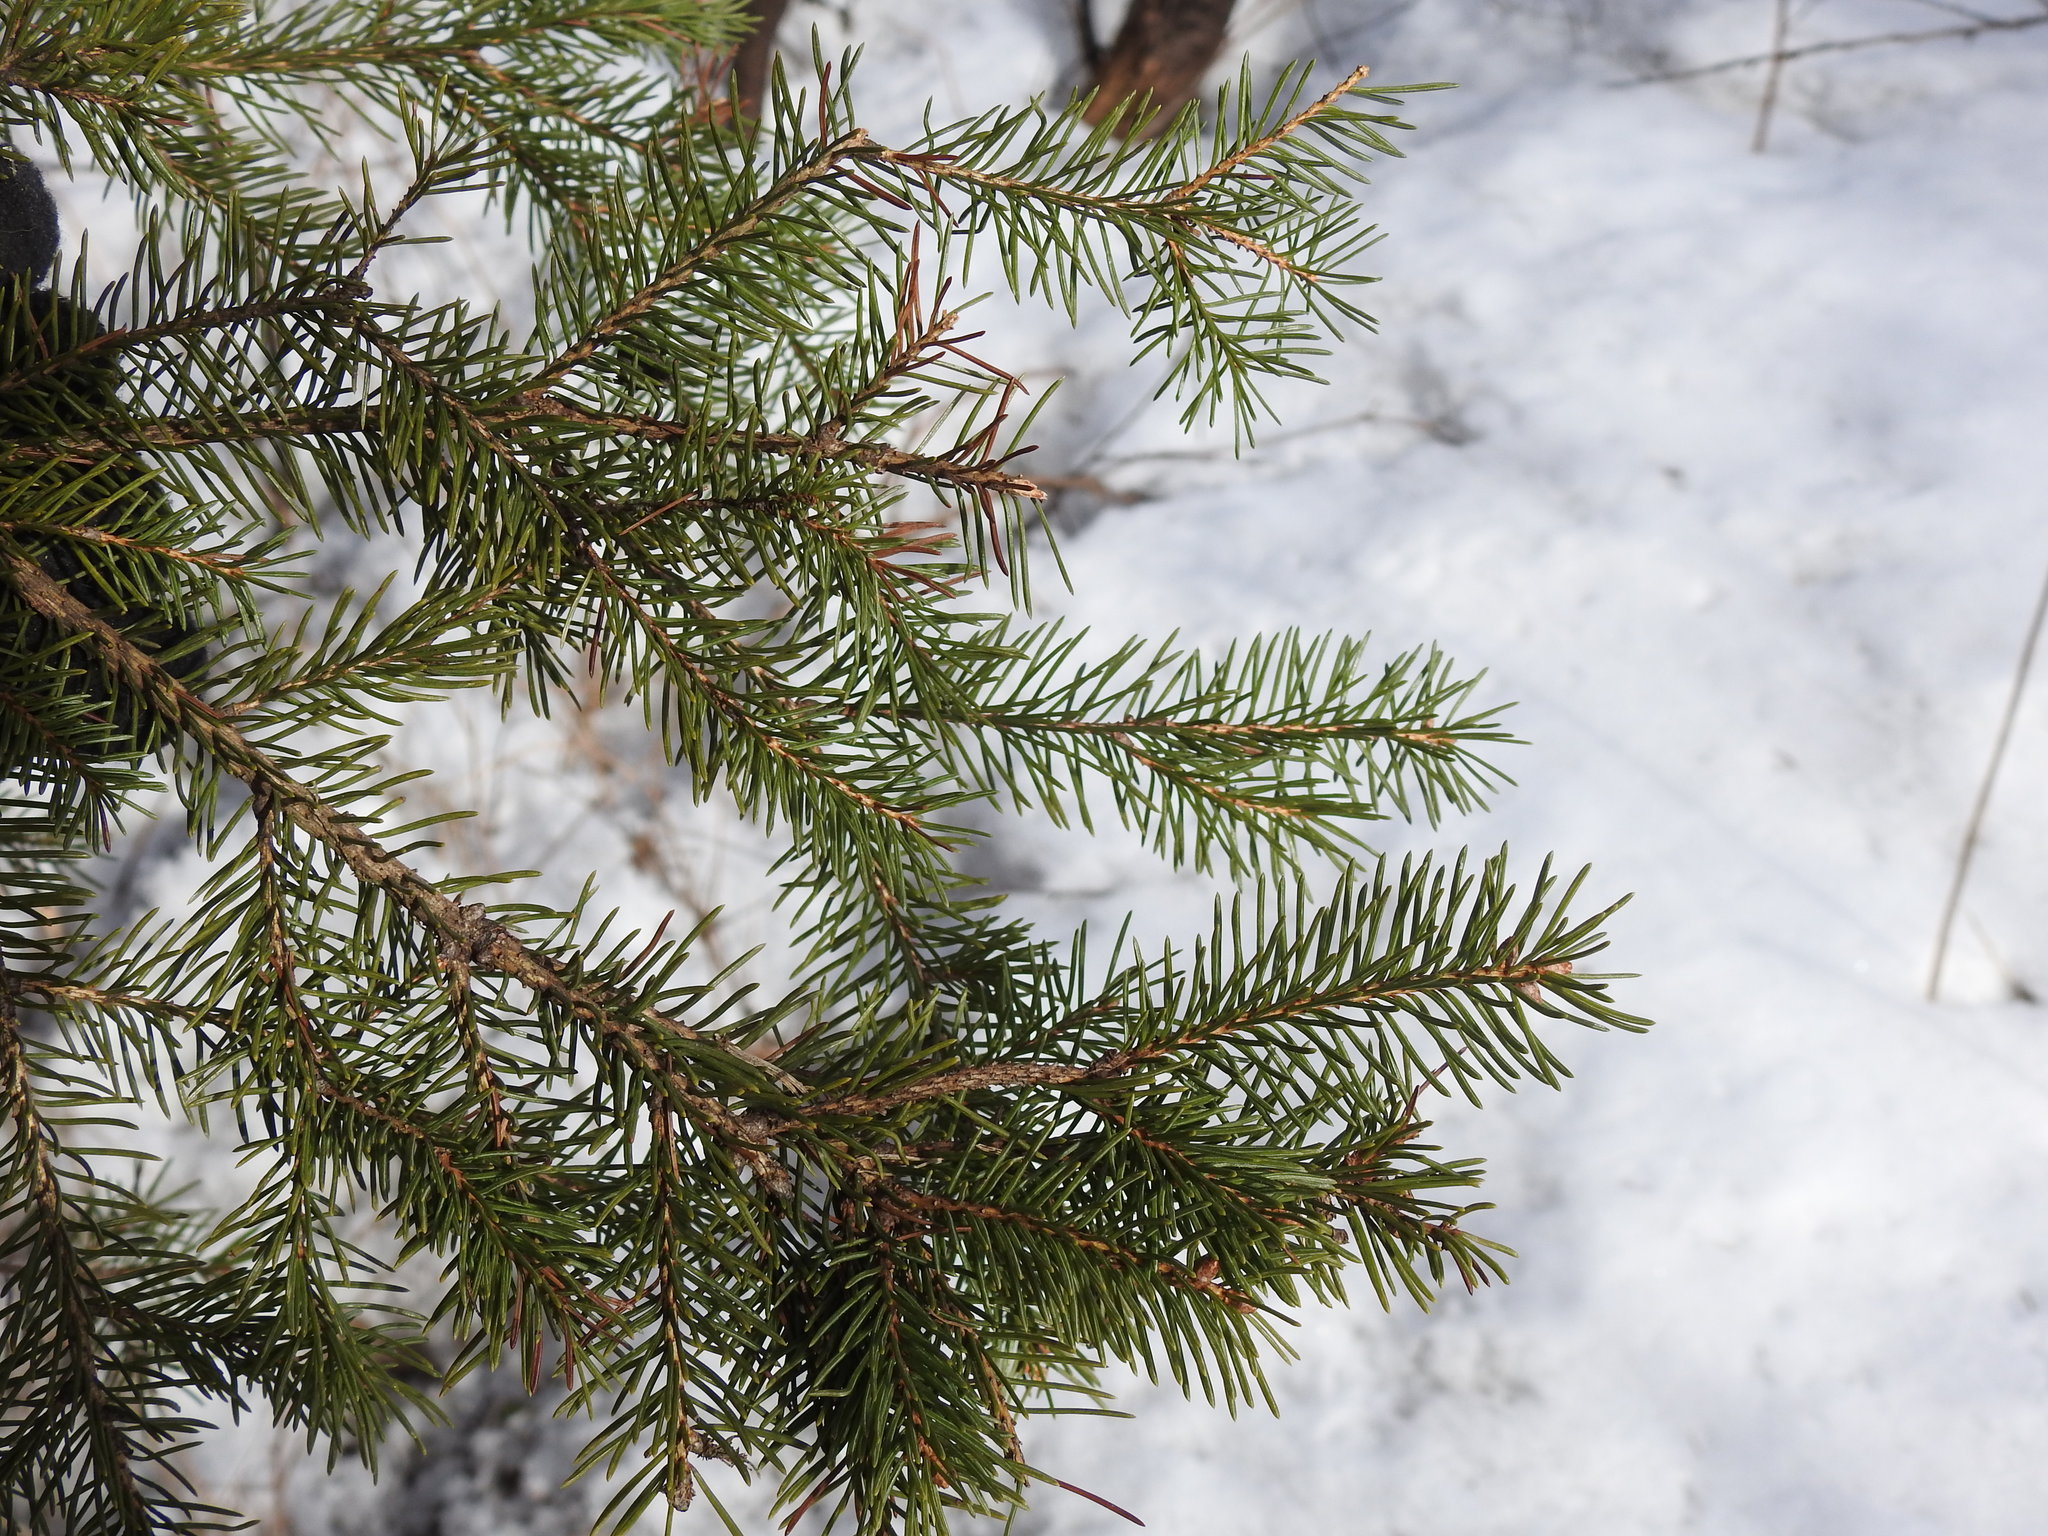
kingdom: Plantae
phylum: Tracheophyta
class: Pinopsida
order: Pinales
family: Pinaceae
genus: Picea
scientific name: Picea glauca
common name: White spruce
